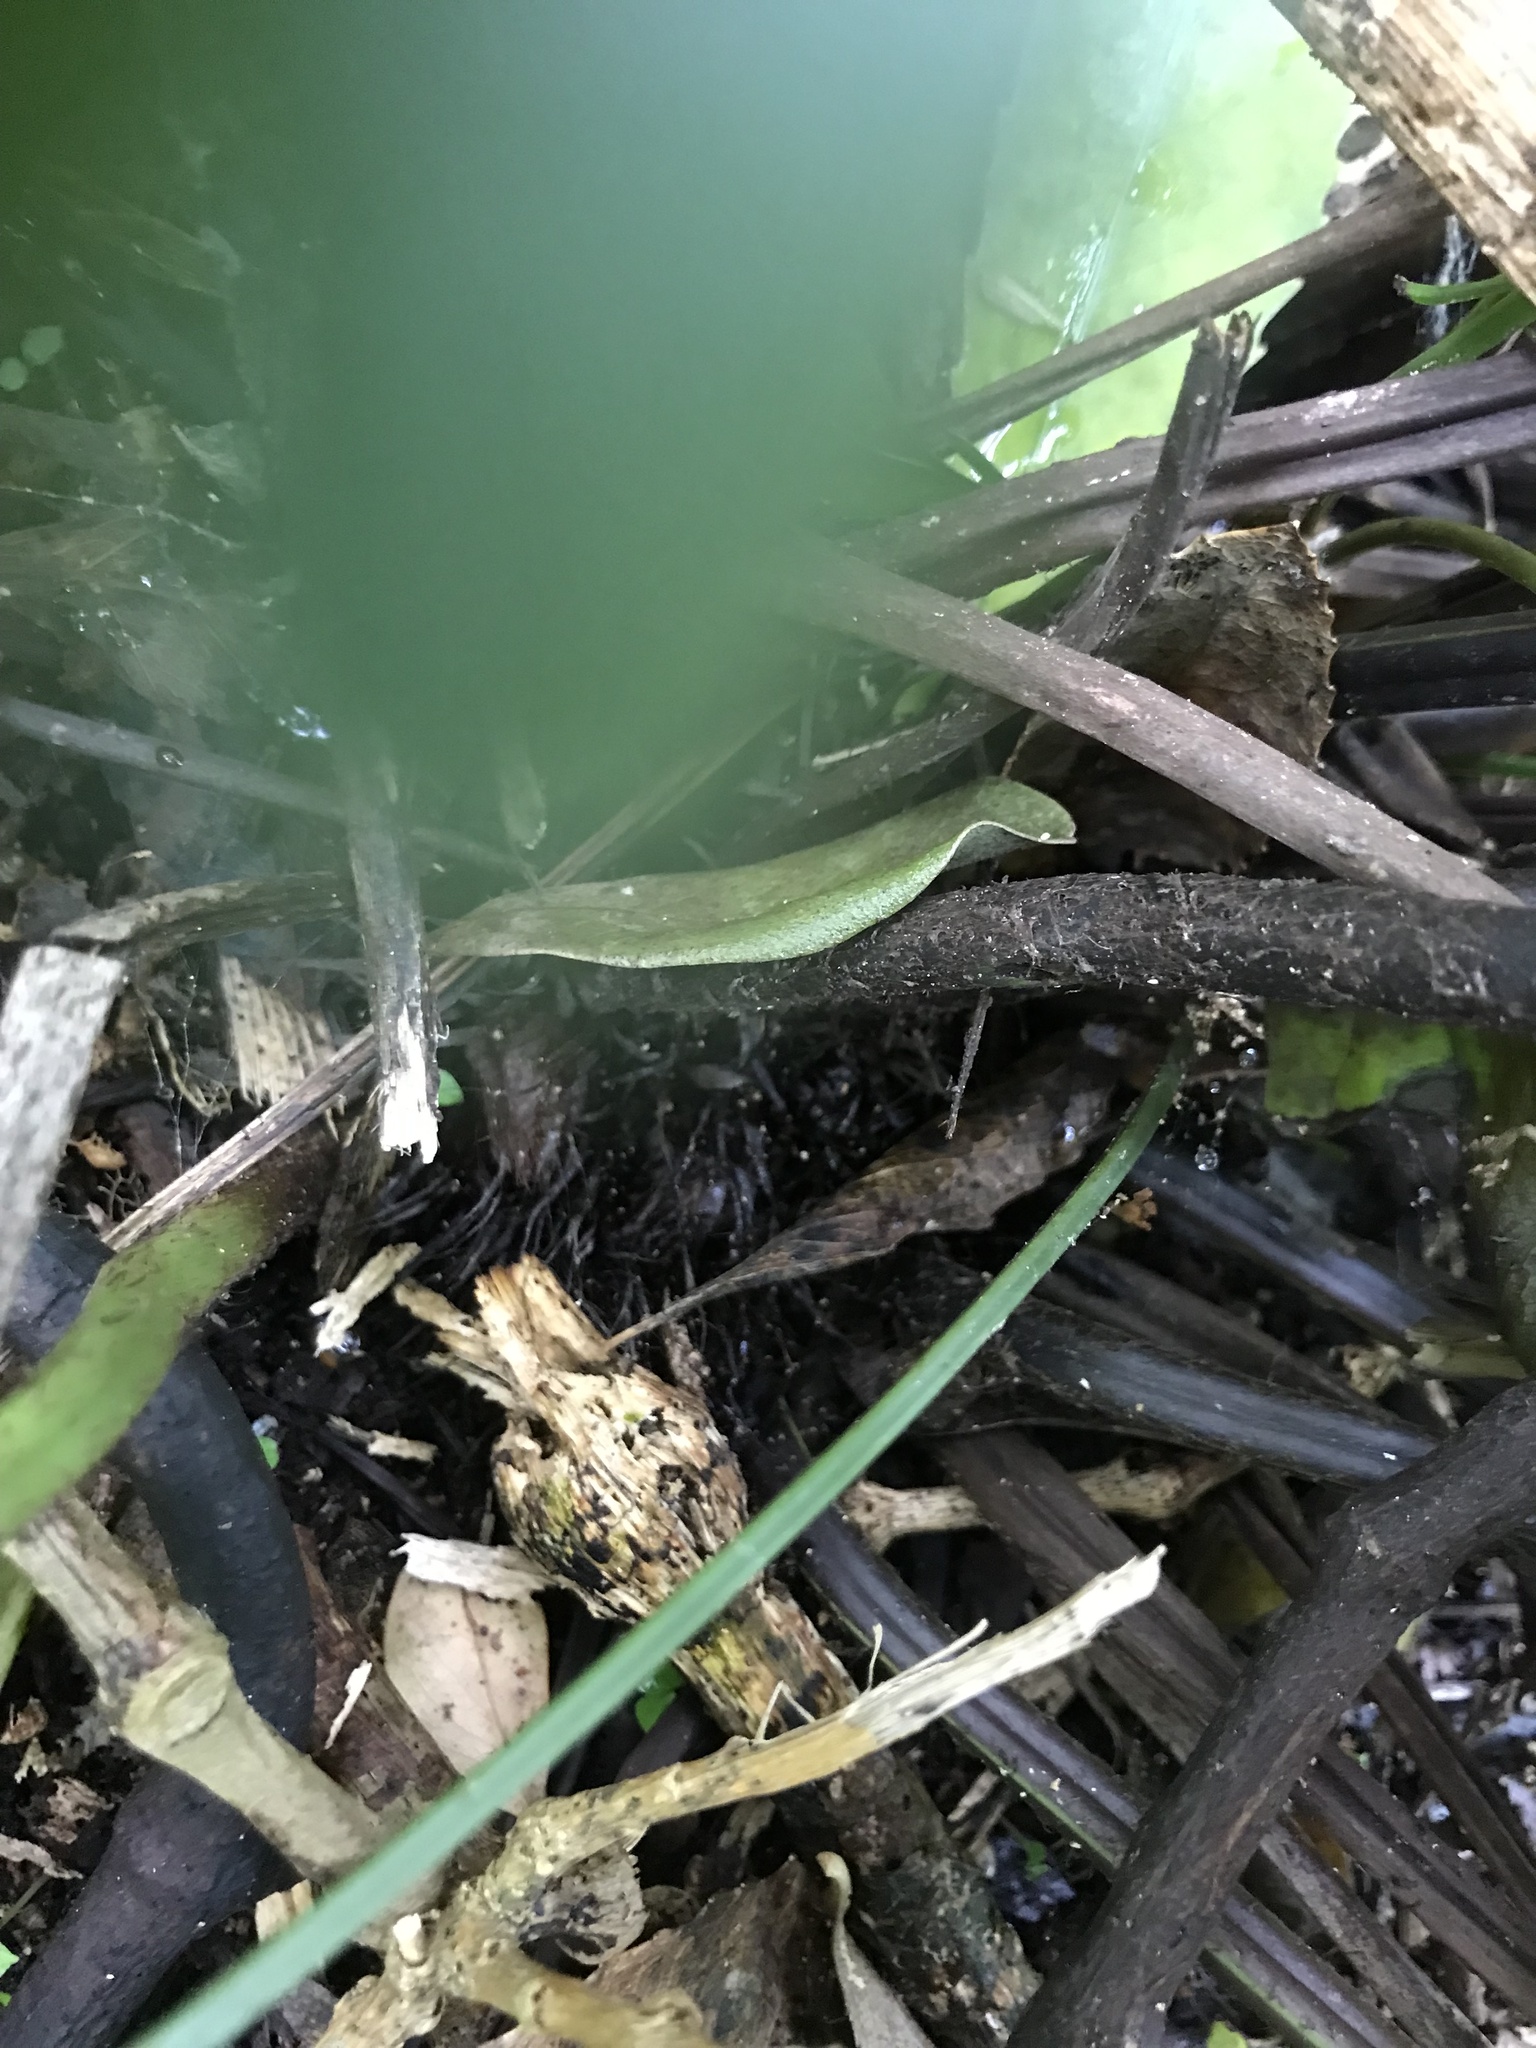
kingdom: Plantae
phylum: Tracheophyta
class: Polypodiopsida
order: Polypodiales
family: Aspleniaceae
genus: Asplenium
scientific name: Asplenium chathamense
